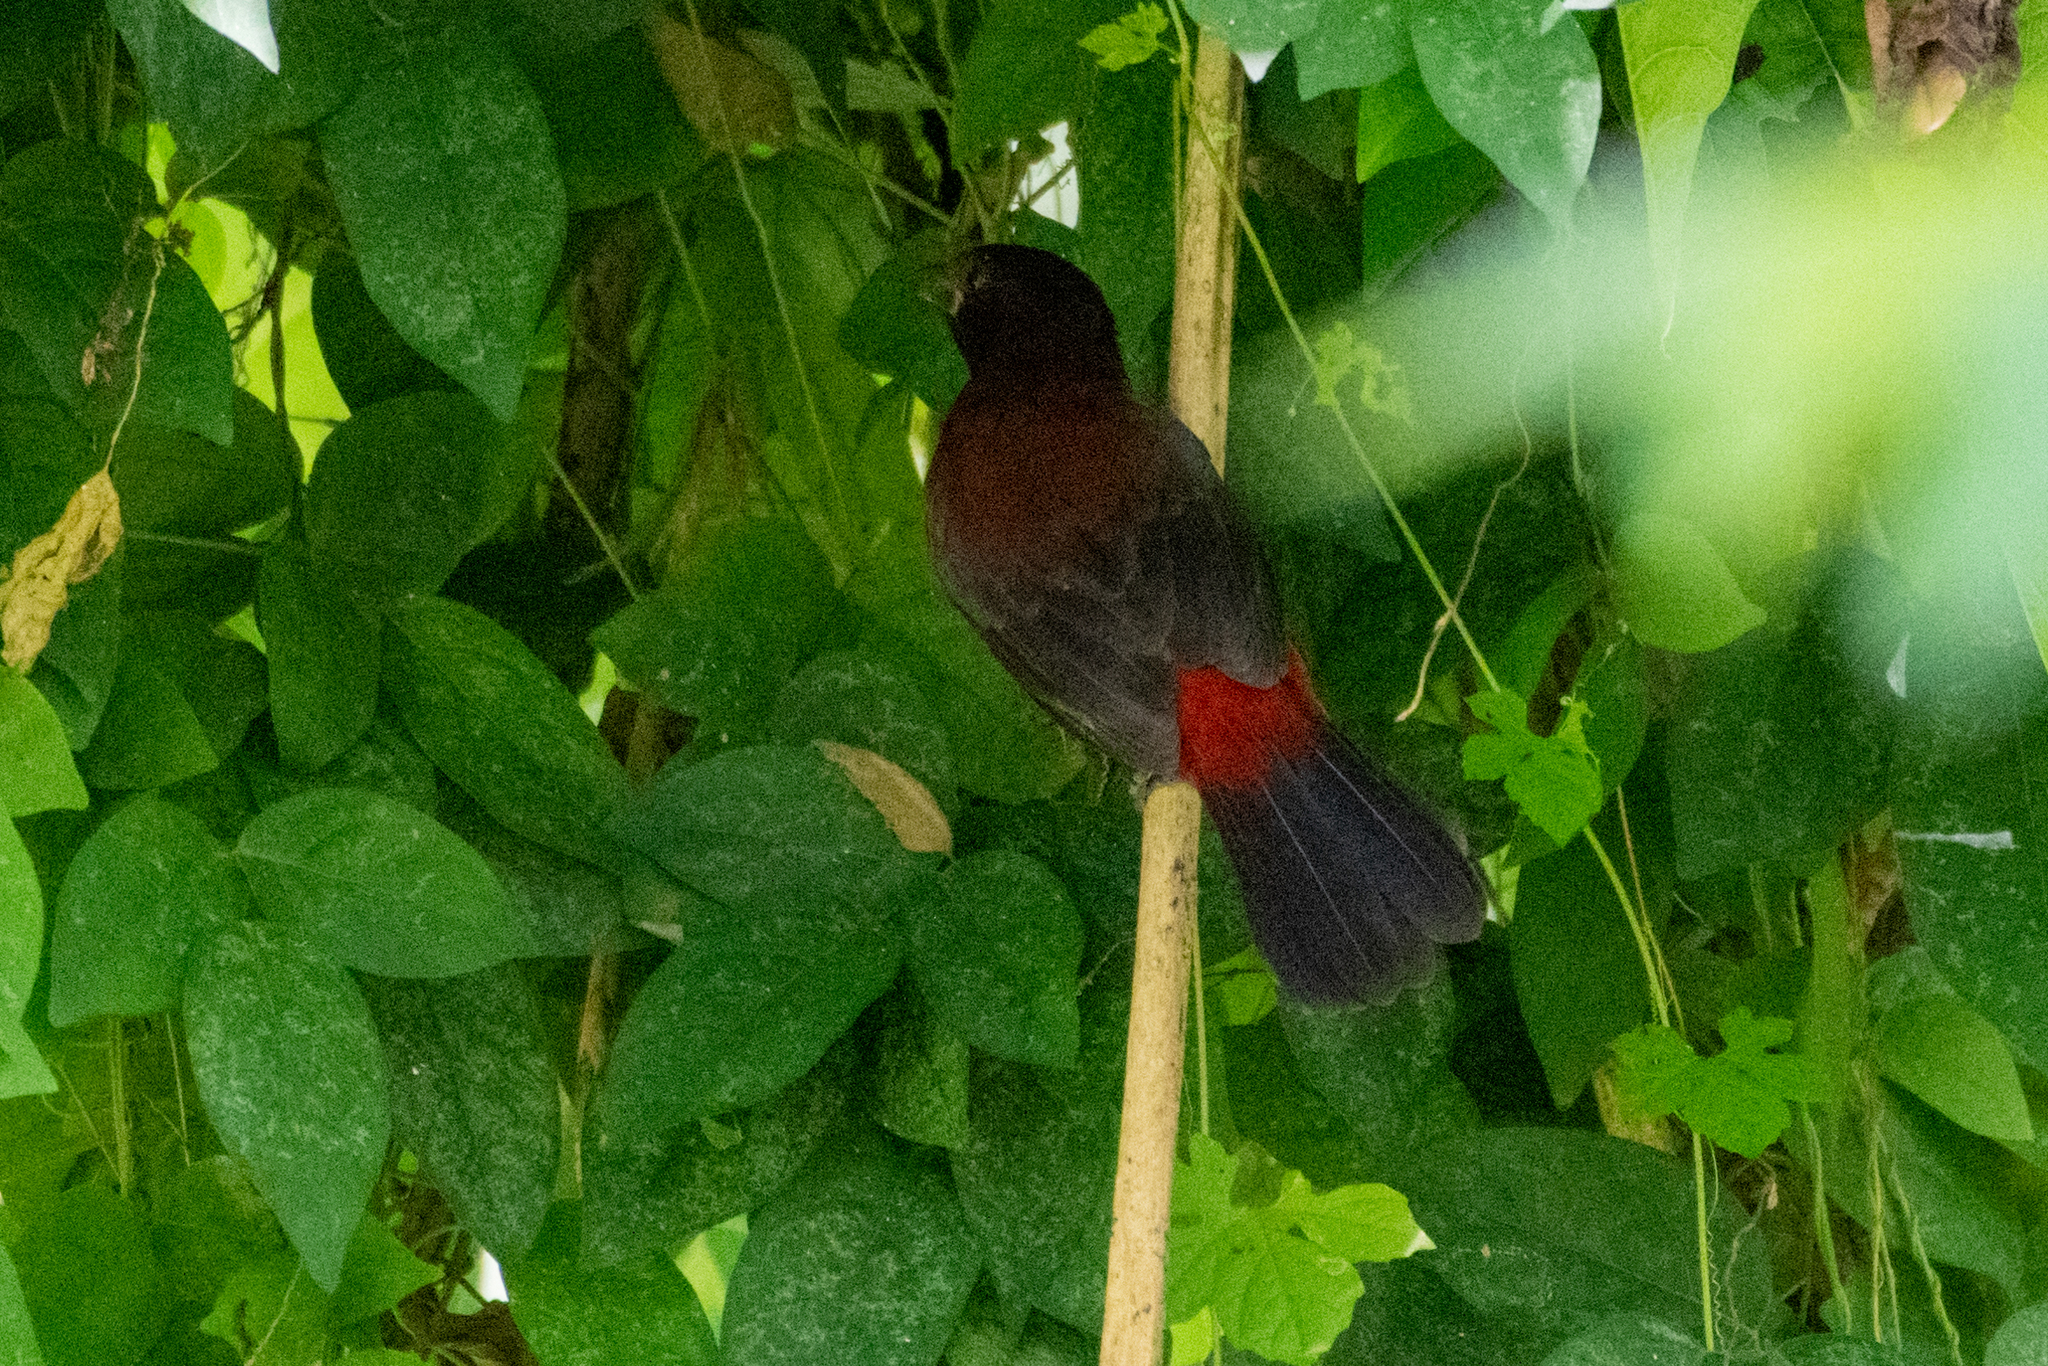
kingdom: Animalia
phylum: Chordata
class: Aves
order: Passeriformes
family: Thraupidae
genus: Ramphocelus
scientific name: Ramphocelus dimidiatus
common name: Crimson-backed tanager
